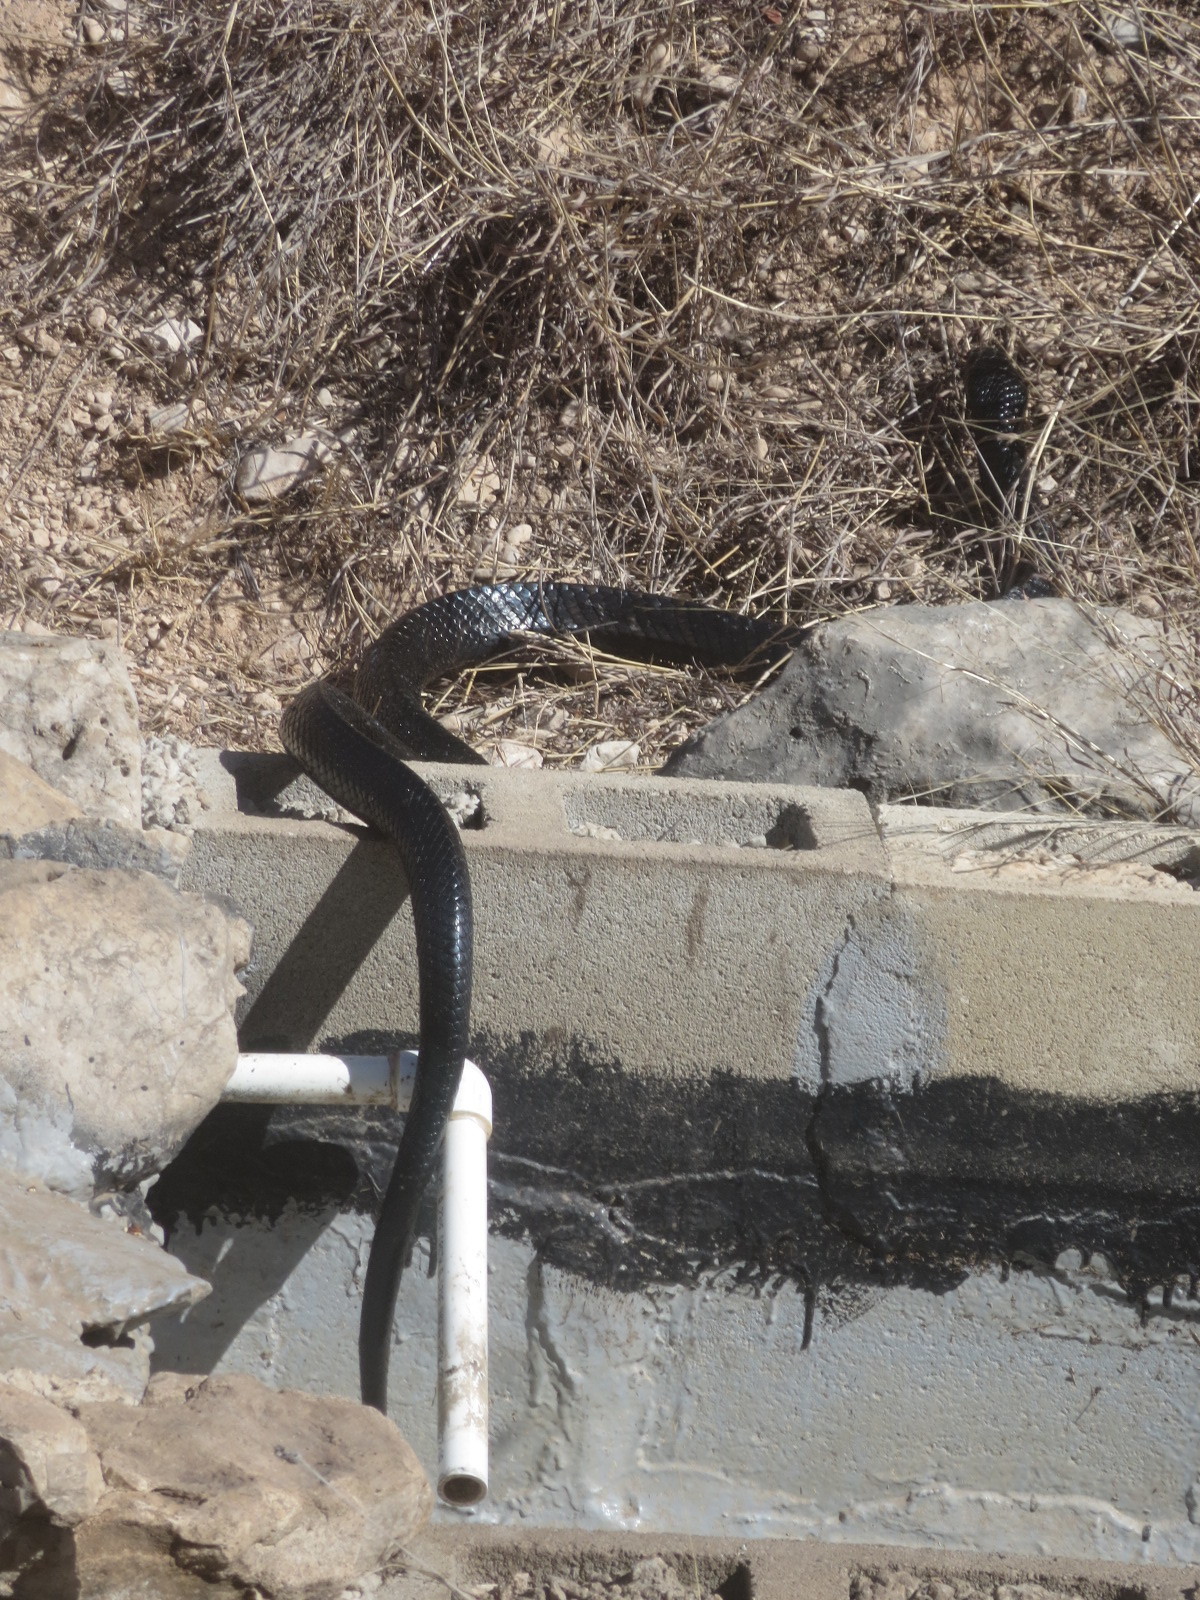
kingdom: Animalia
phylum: Chordata
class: Squamata
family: Colubridae
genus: Drymarchon
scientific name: Drymarchon melanurus
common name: Central american indigo snake
